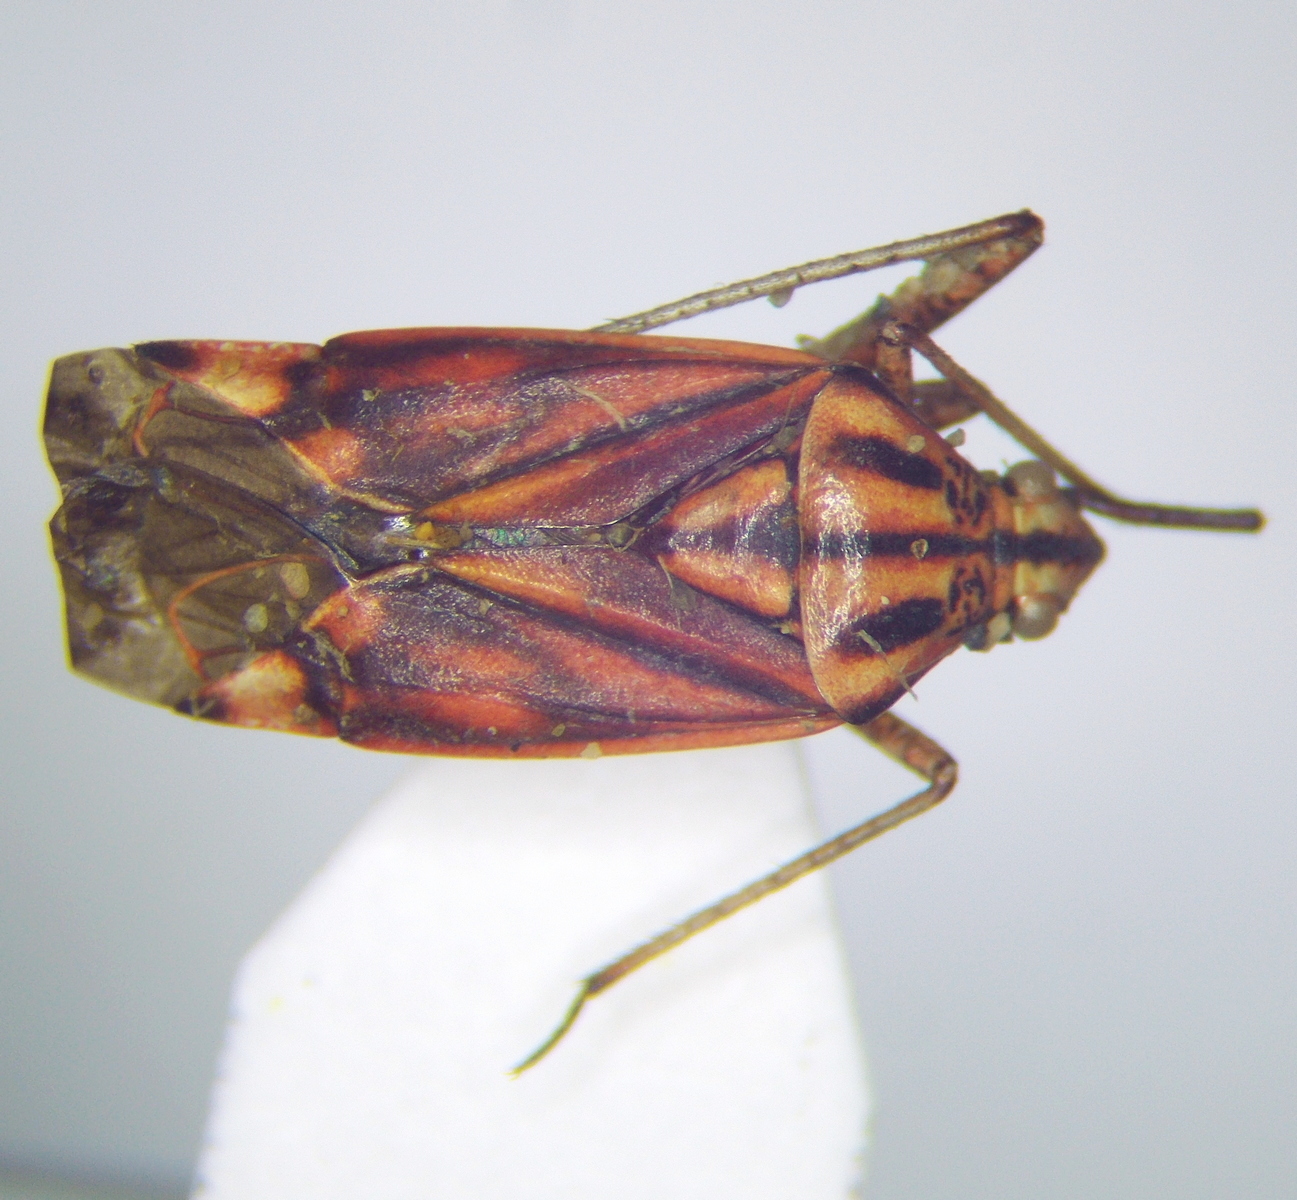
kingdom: Animalia
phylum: Arthropoda
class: Insecta
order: Hemiptera
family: Miridae
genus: Closterotomus
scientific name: Closterotomus histrio
